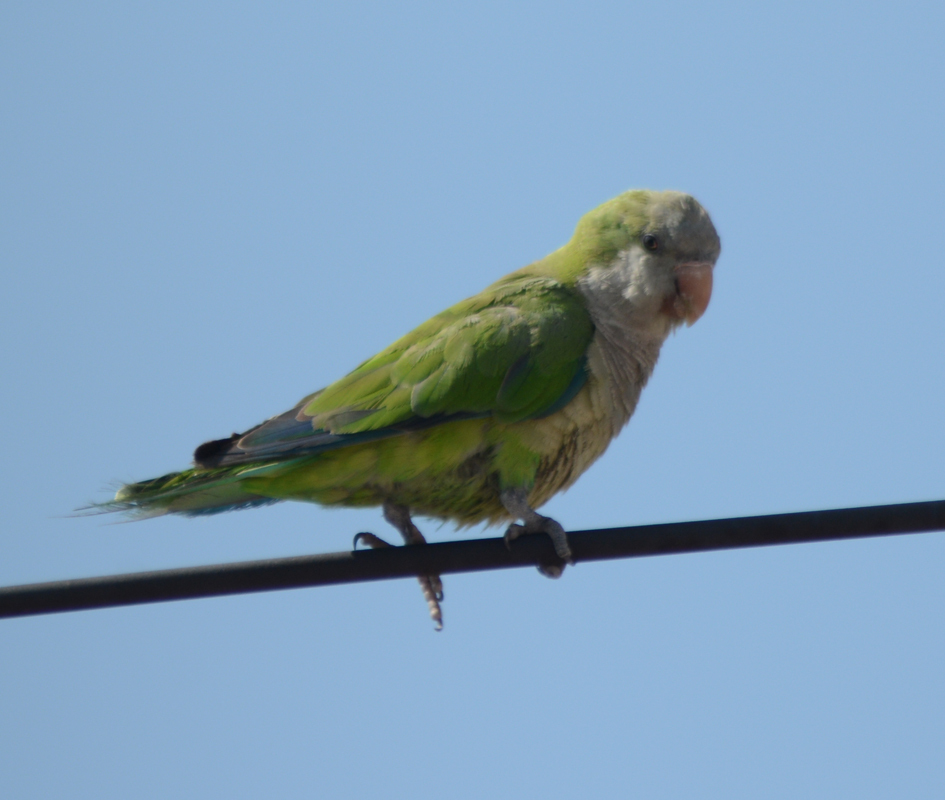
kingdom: Animalia
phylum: Chordata
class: Aves
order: Psittaciformes
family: Psittacidae
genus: Myiopsitta
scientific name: Myiopsitta monachus
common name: Monk parakeet
